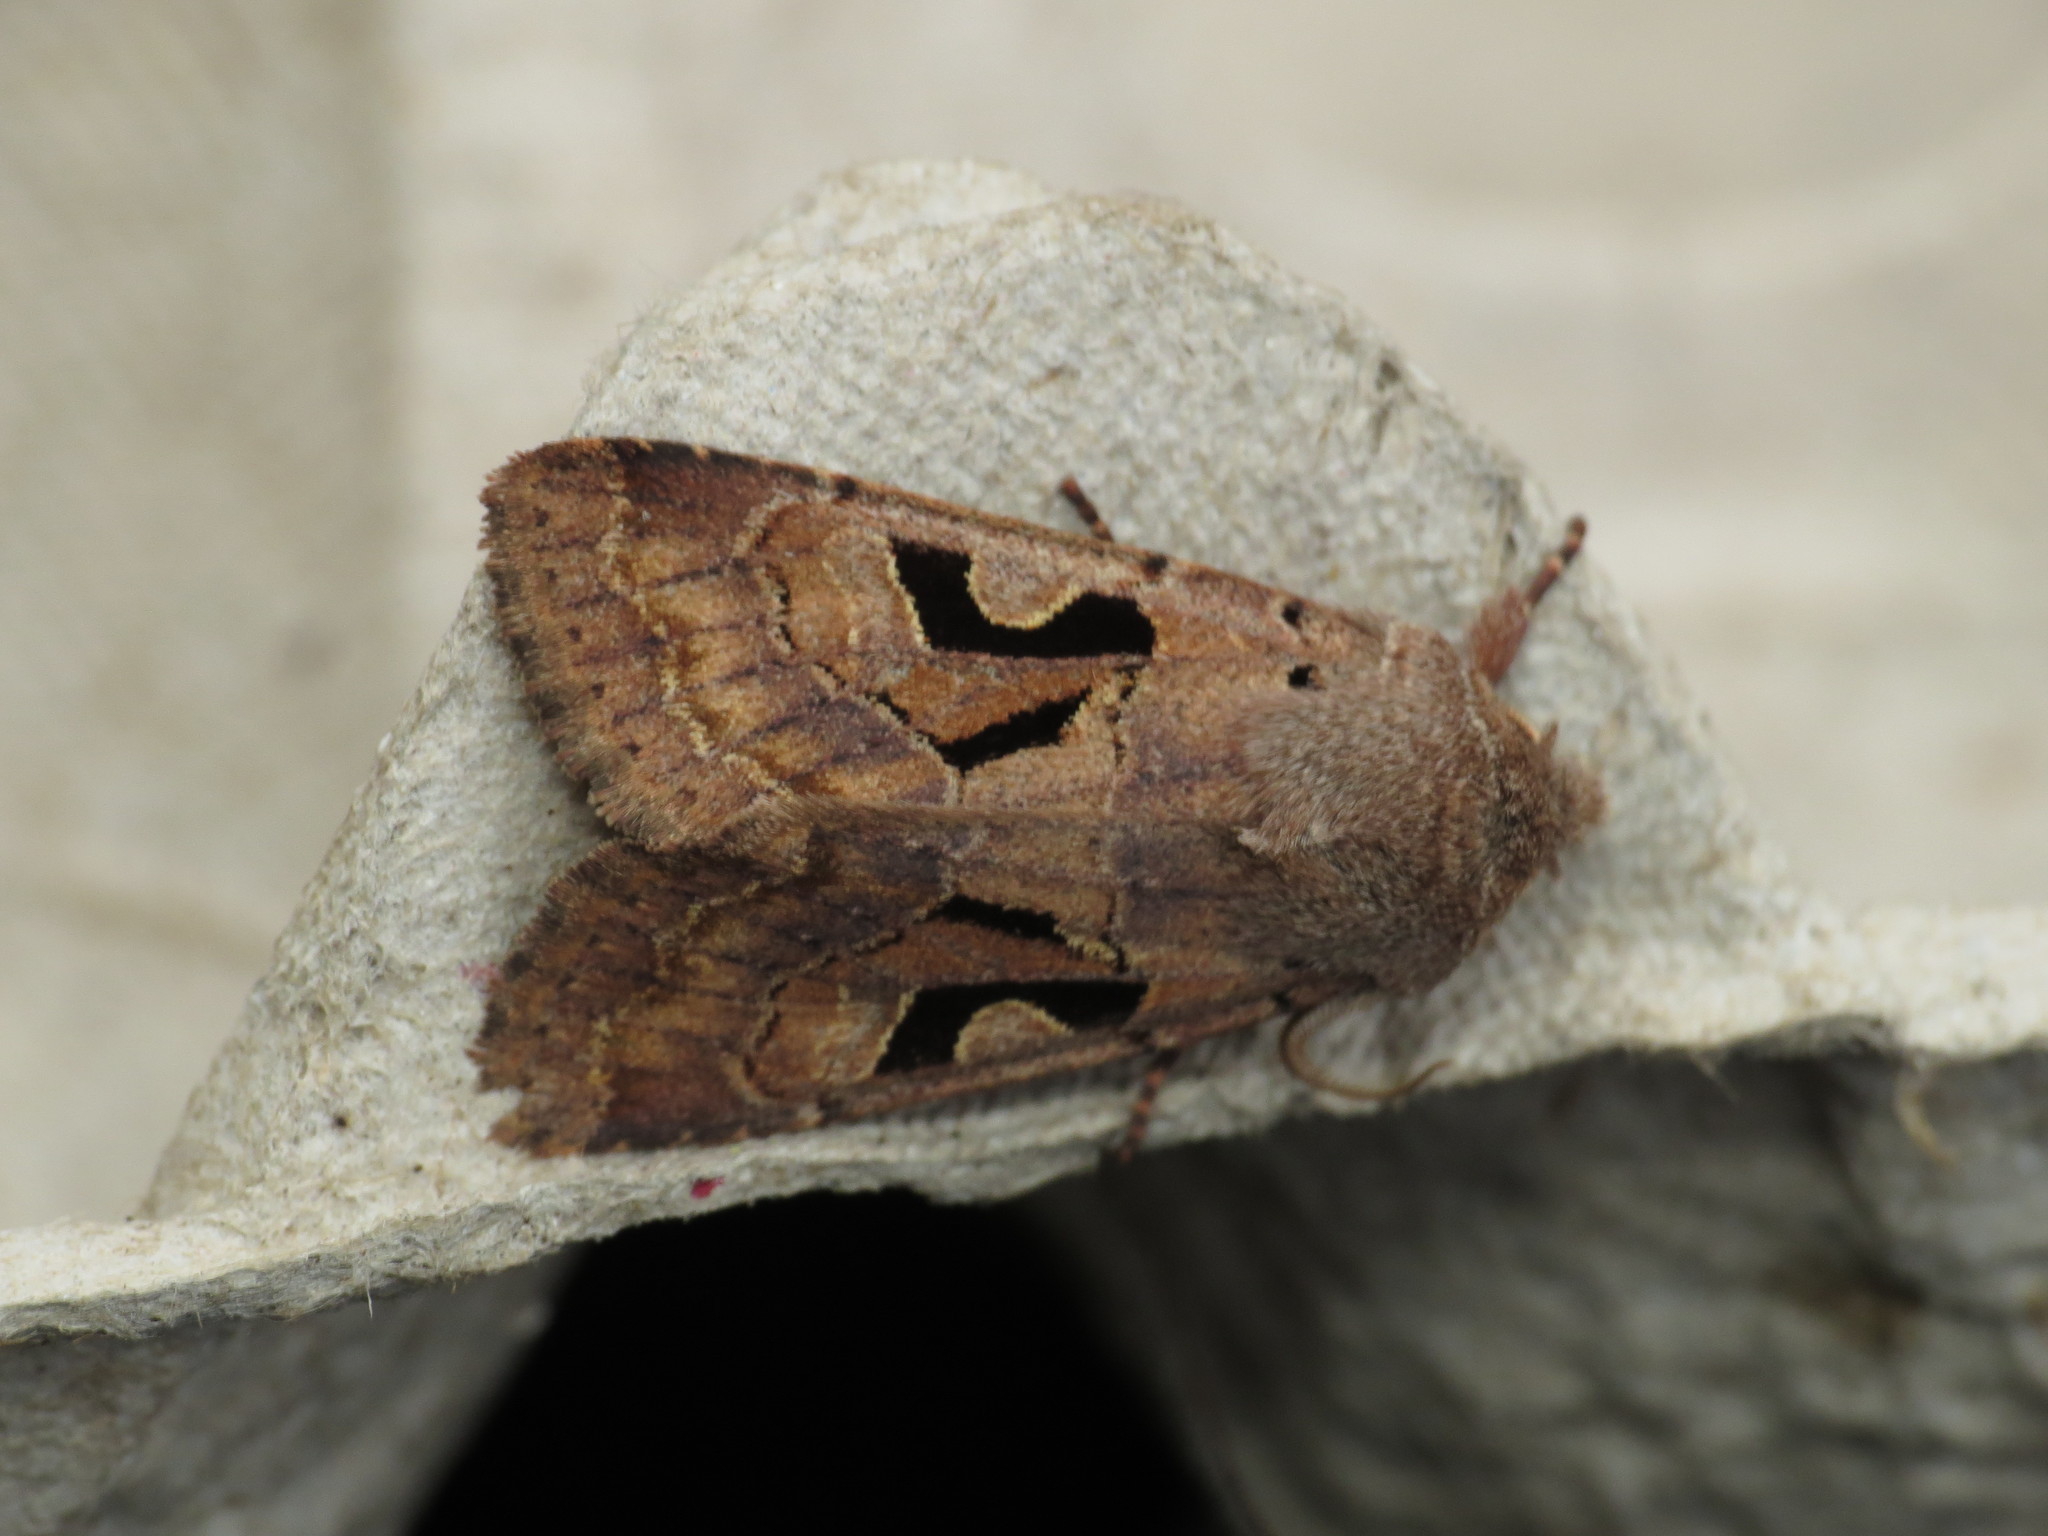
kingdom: Animalia
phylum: Arthropoda
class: Insecta
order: Lepidoptera
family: Noctuidae
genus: Orthosia
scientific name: Orthosia gothica
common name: Hebrew character
